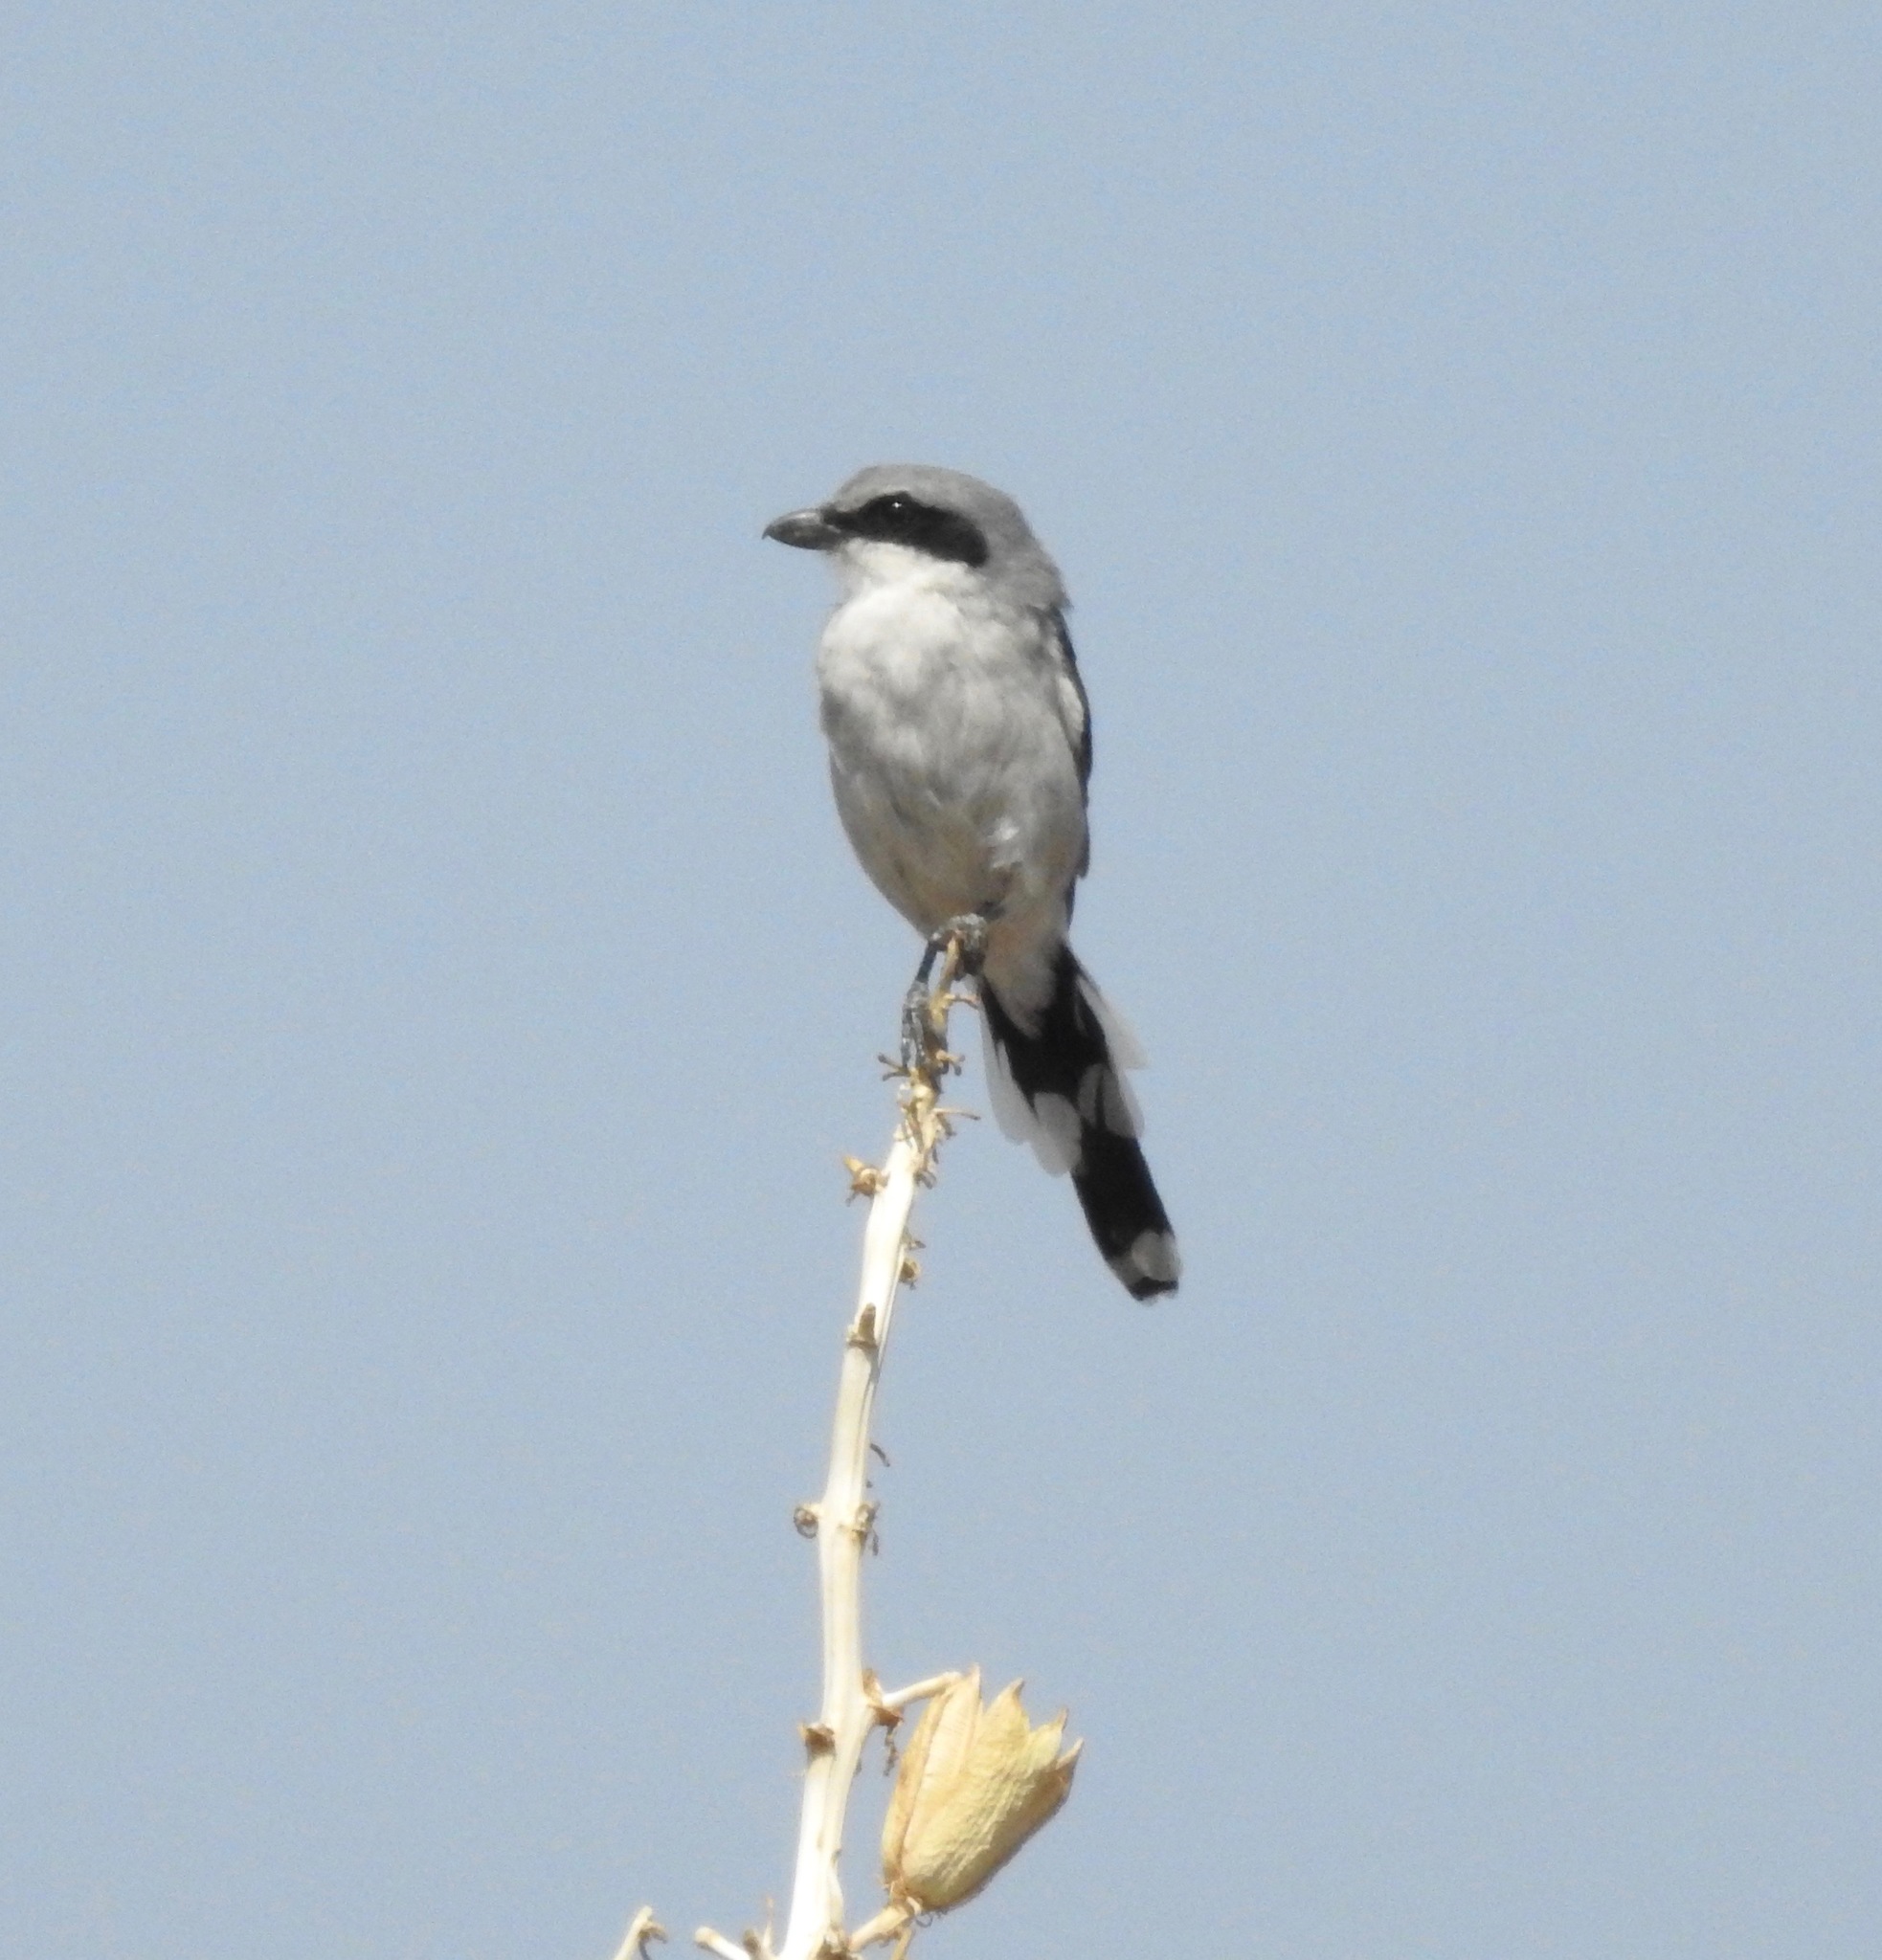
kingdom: Animalia
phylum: Chordata
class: Aves
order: Passeriformes
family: Laniidae
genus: Lanius
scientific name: Lanius ludovicianus
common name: Loggerhead shrike
